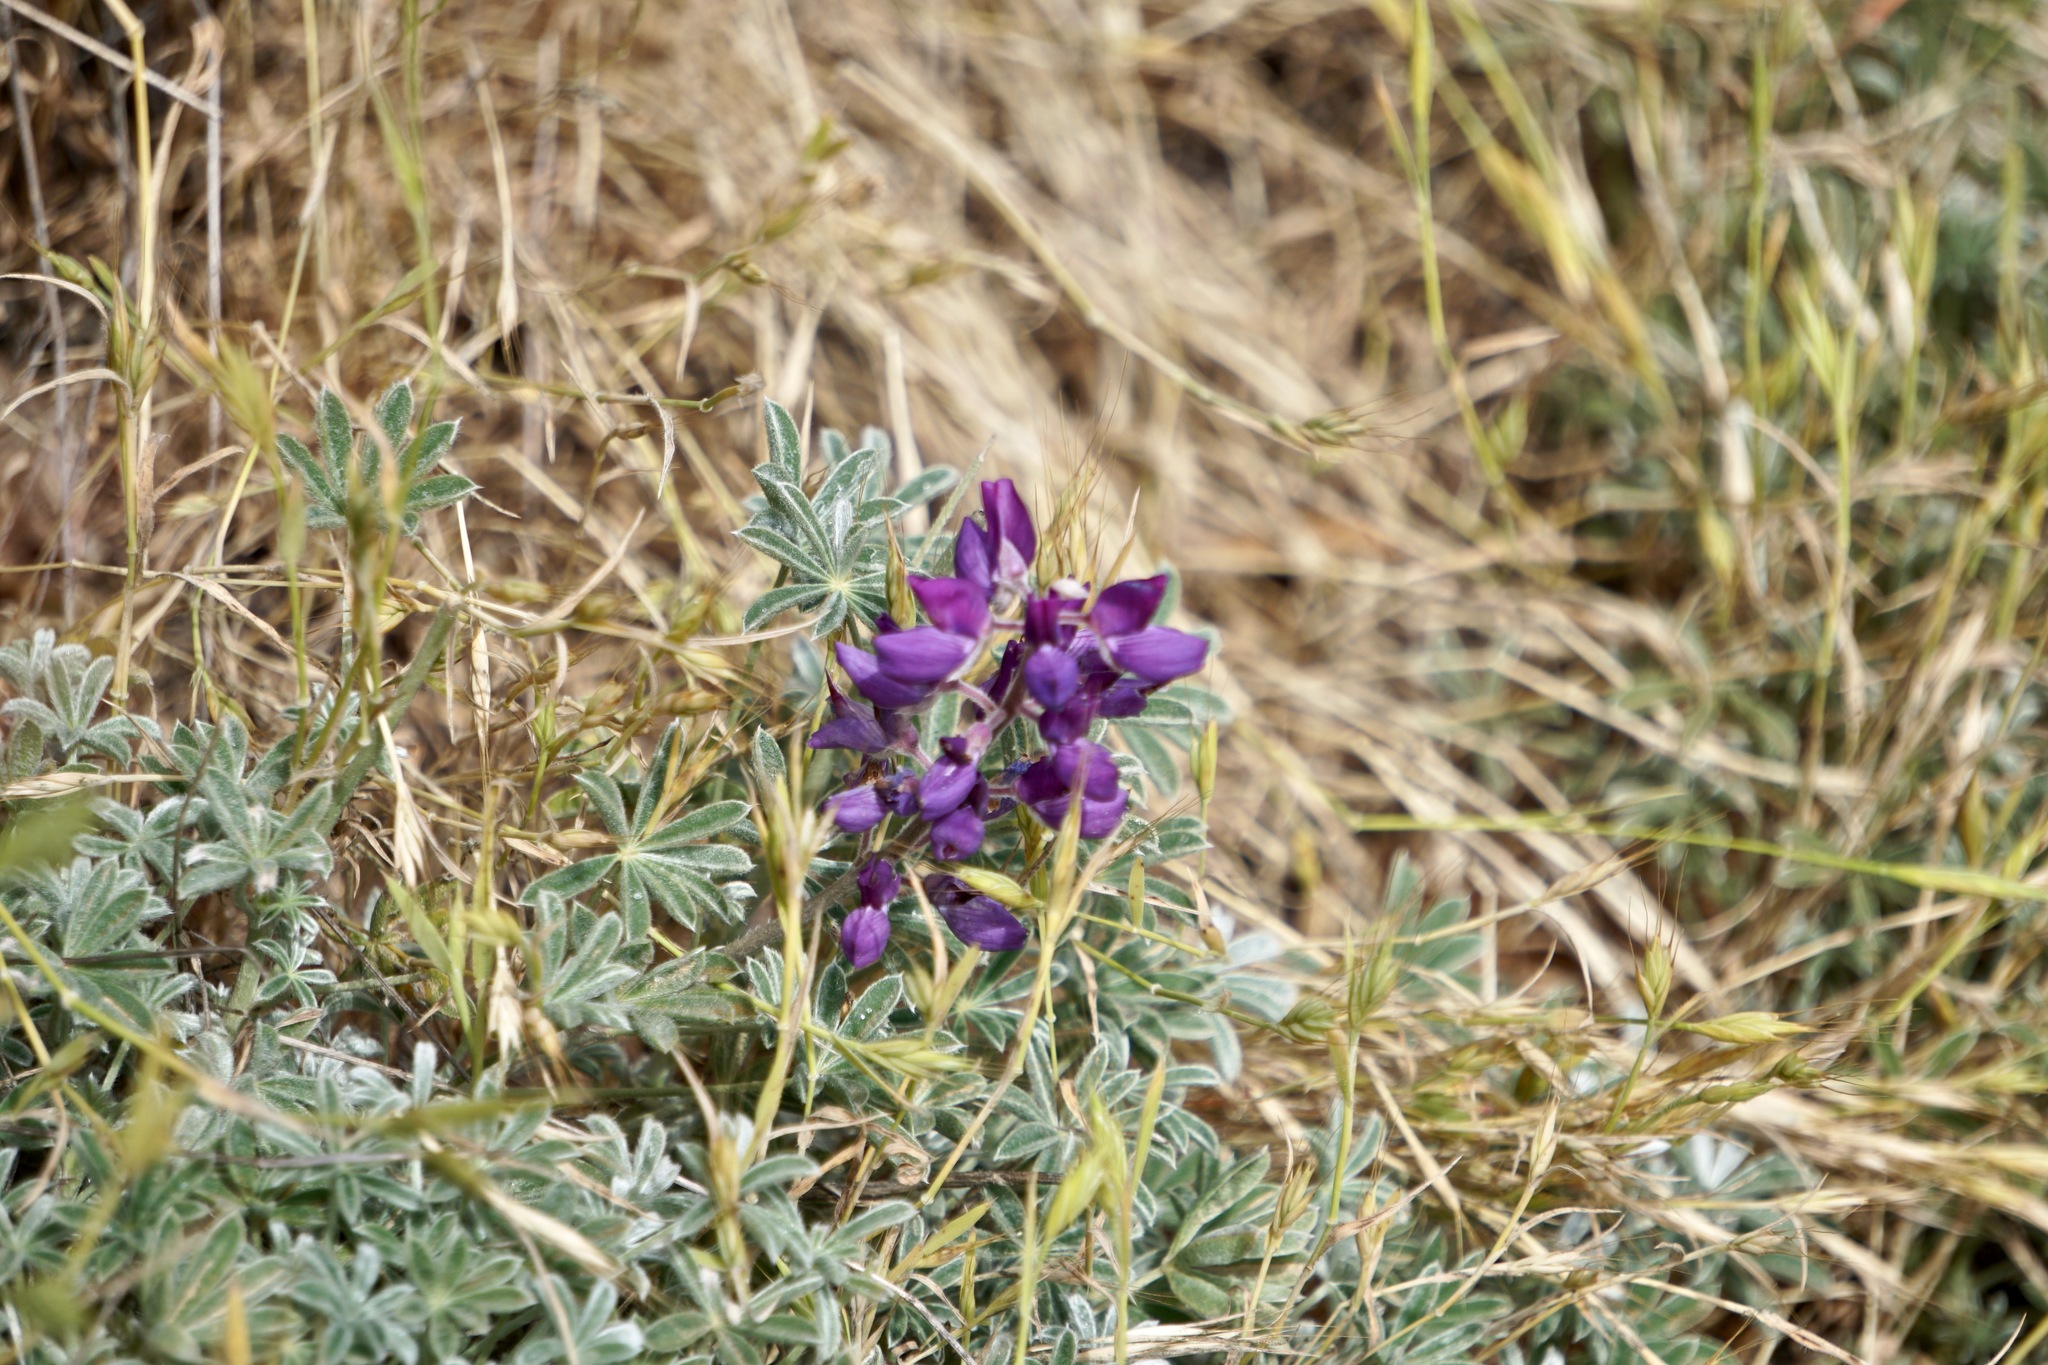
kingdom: Plantae
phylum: Tracheophyta
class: Magnoliopsida
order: Fabales
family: Fabaceae
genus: Lupinus
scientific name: Lupinus albifrons
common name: Foothill lupine
